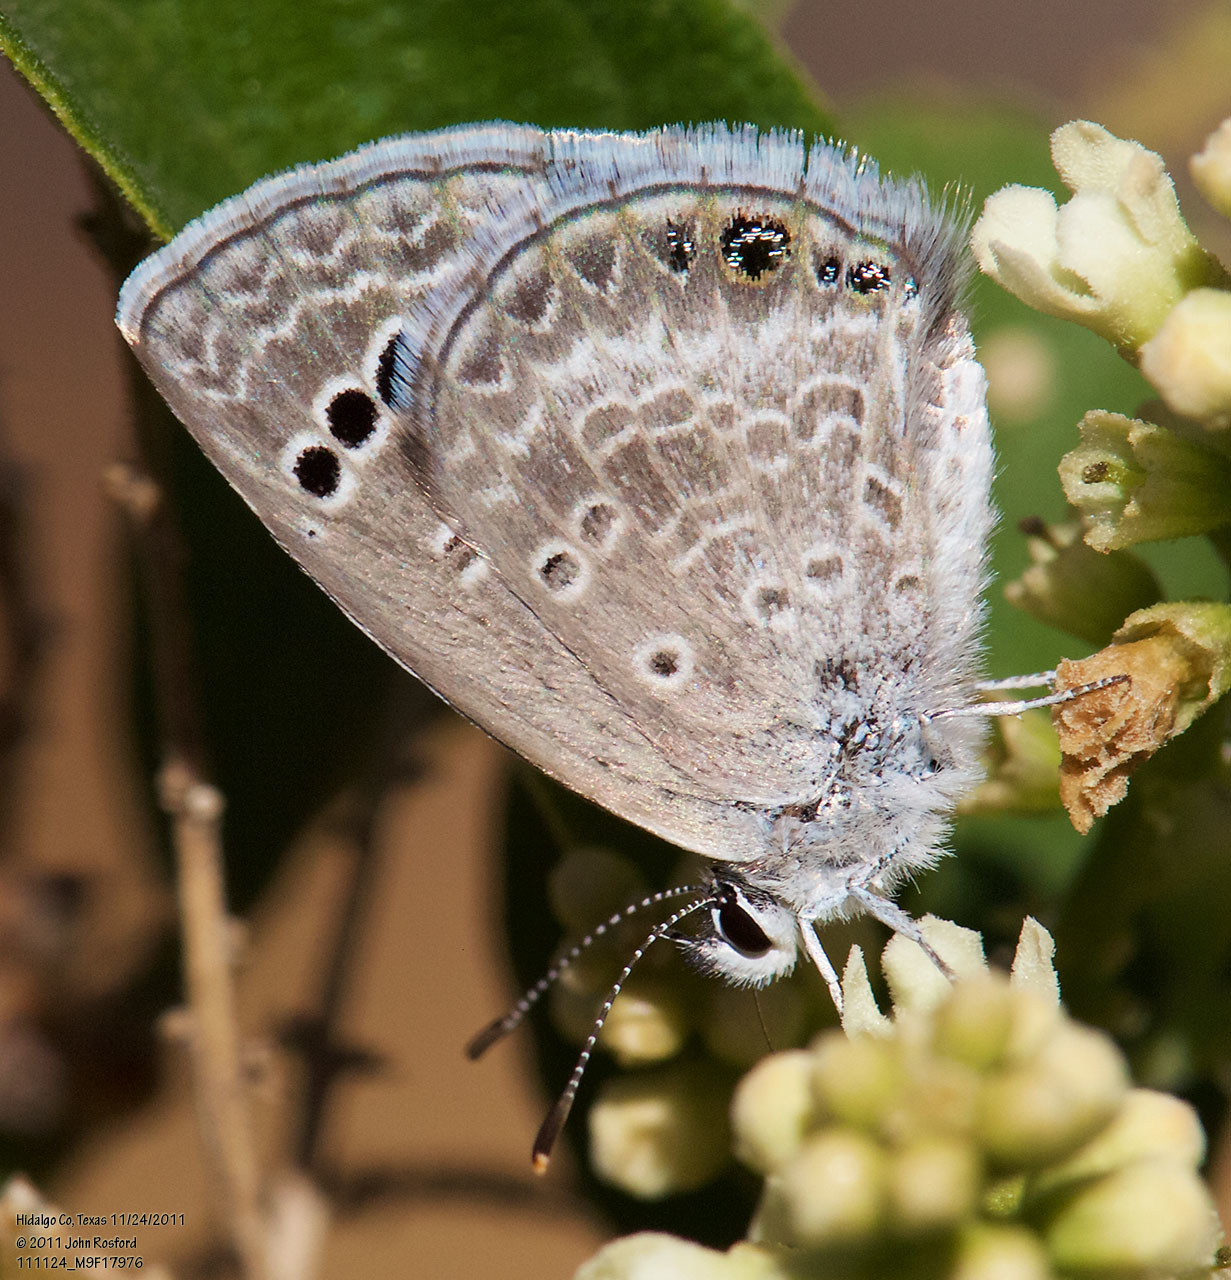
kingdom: Animalia
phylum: Arthropoda
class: Insecta
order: Lepidoptera
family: Lycaenidae
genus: Echinargus
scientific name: Echinargus isola
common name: Reakirt's blue
